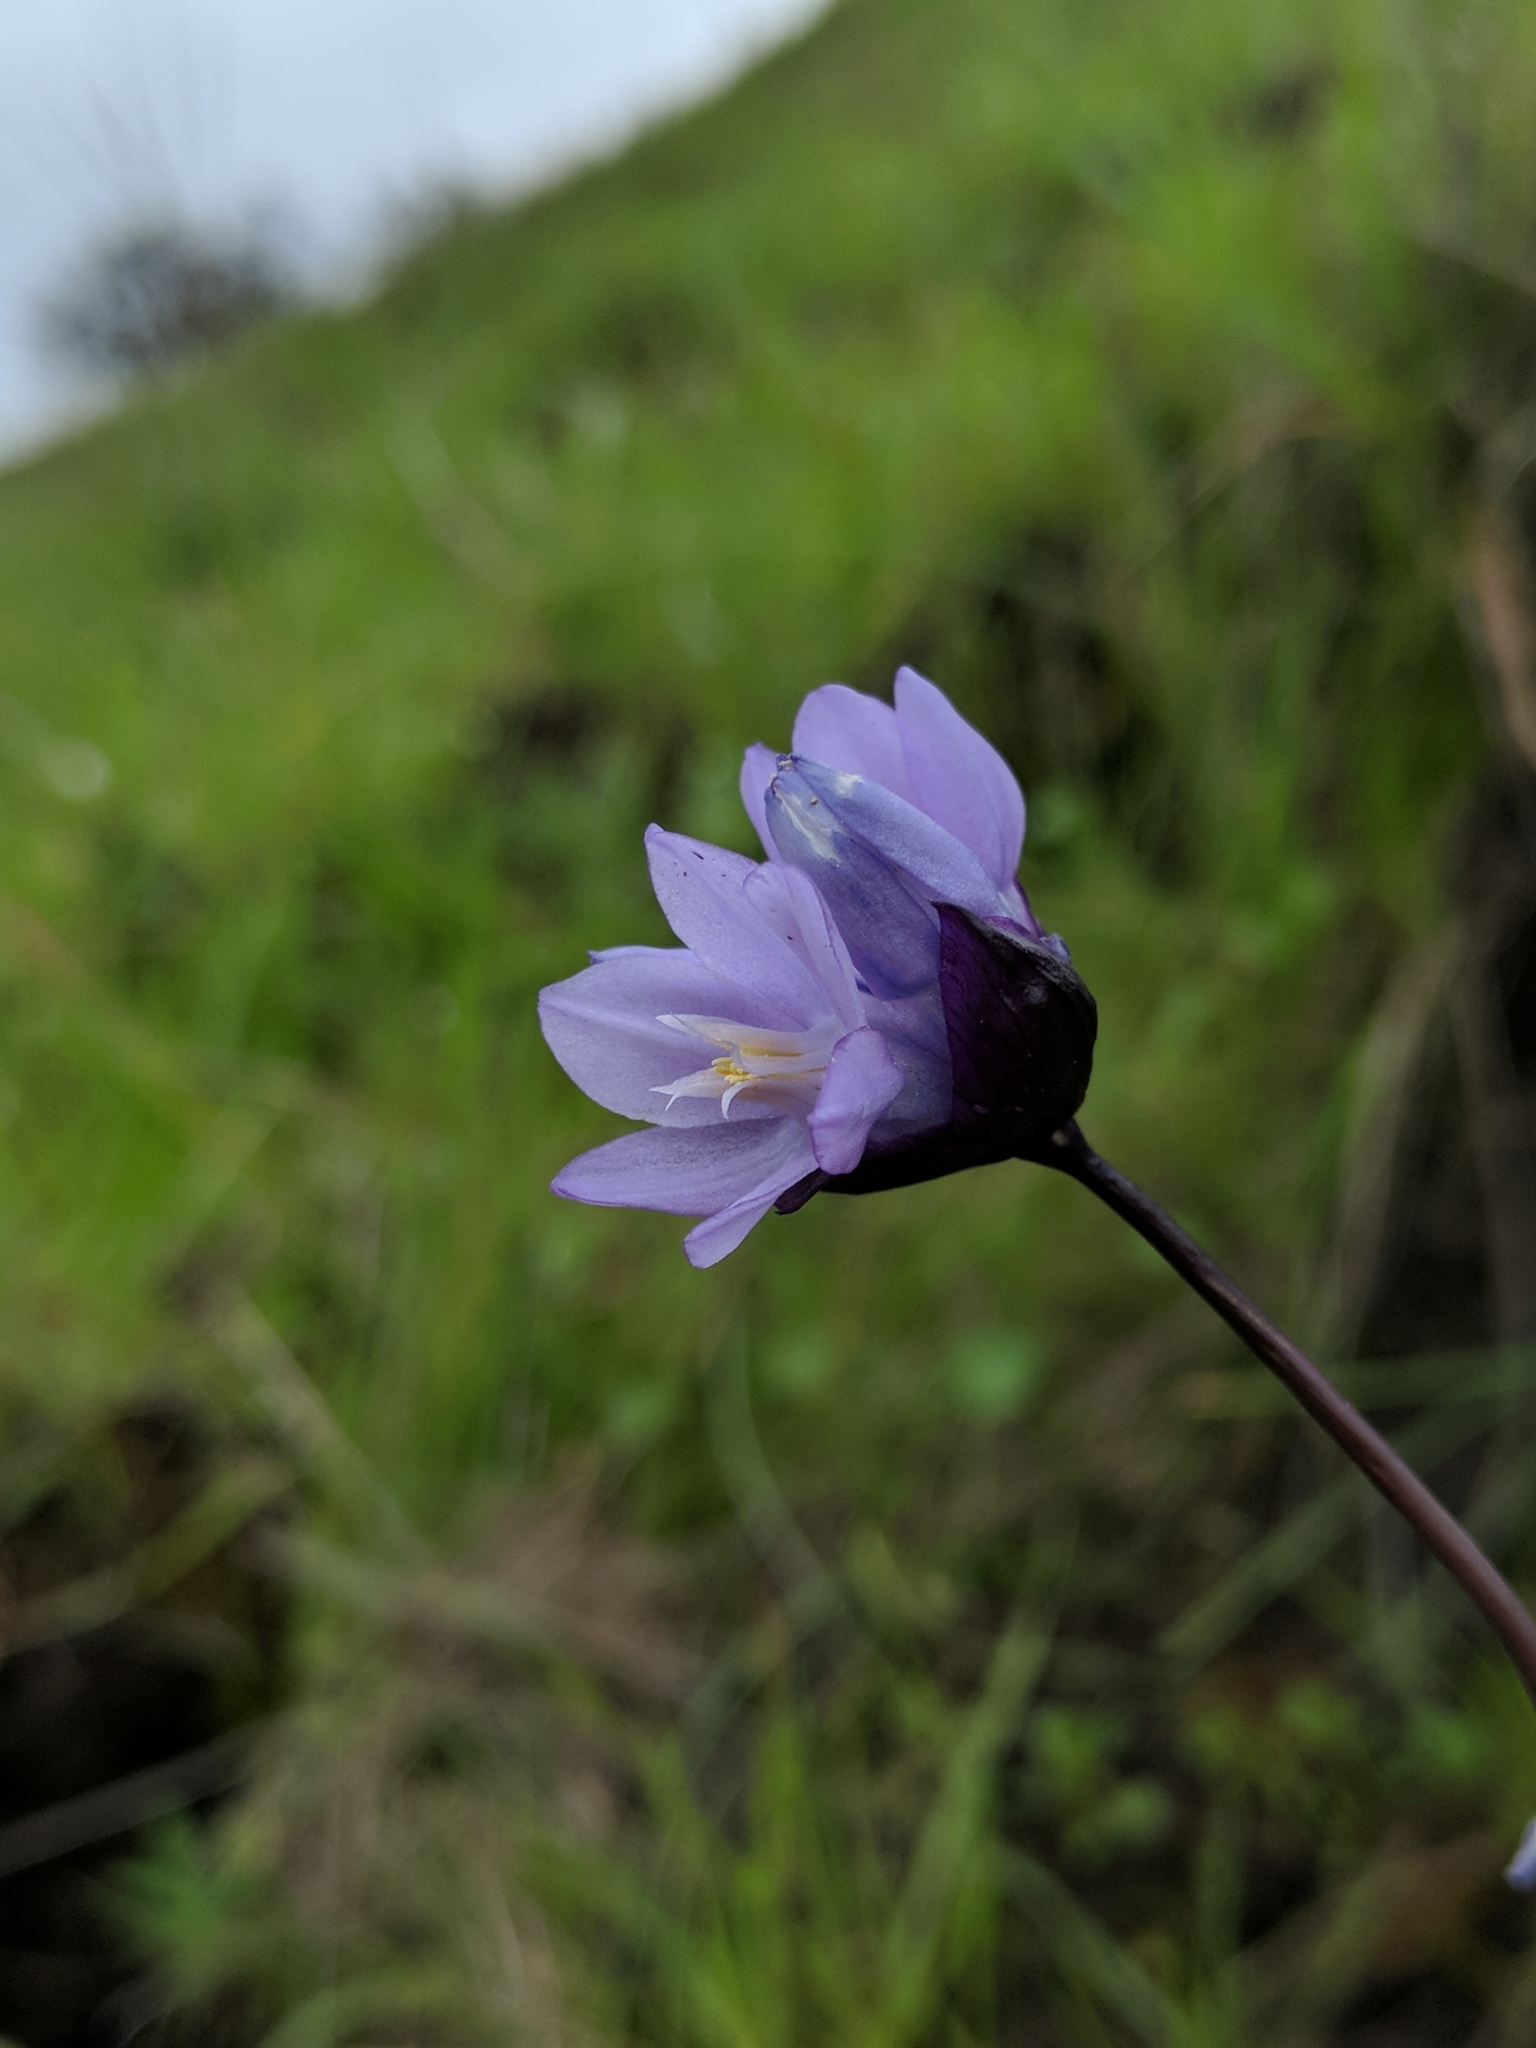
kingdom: Plantae
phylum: Tracheophyta
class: Liliopsida
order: Asparagales
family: Asparagaceae
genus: Dipterostemon
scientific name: Dipterostemon capitatus
